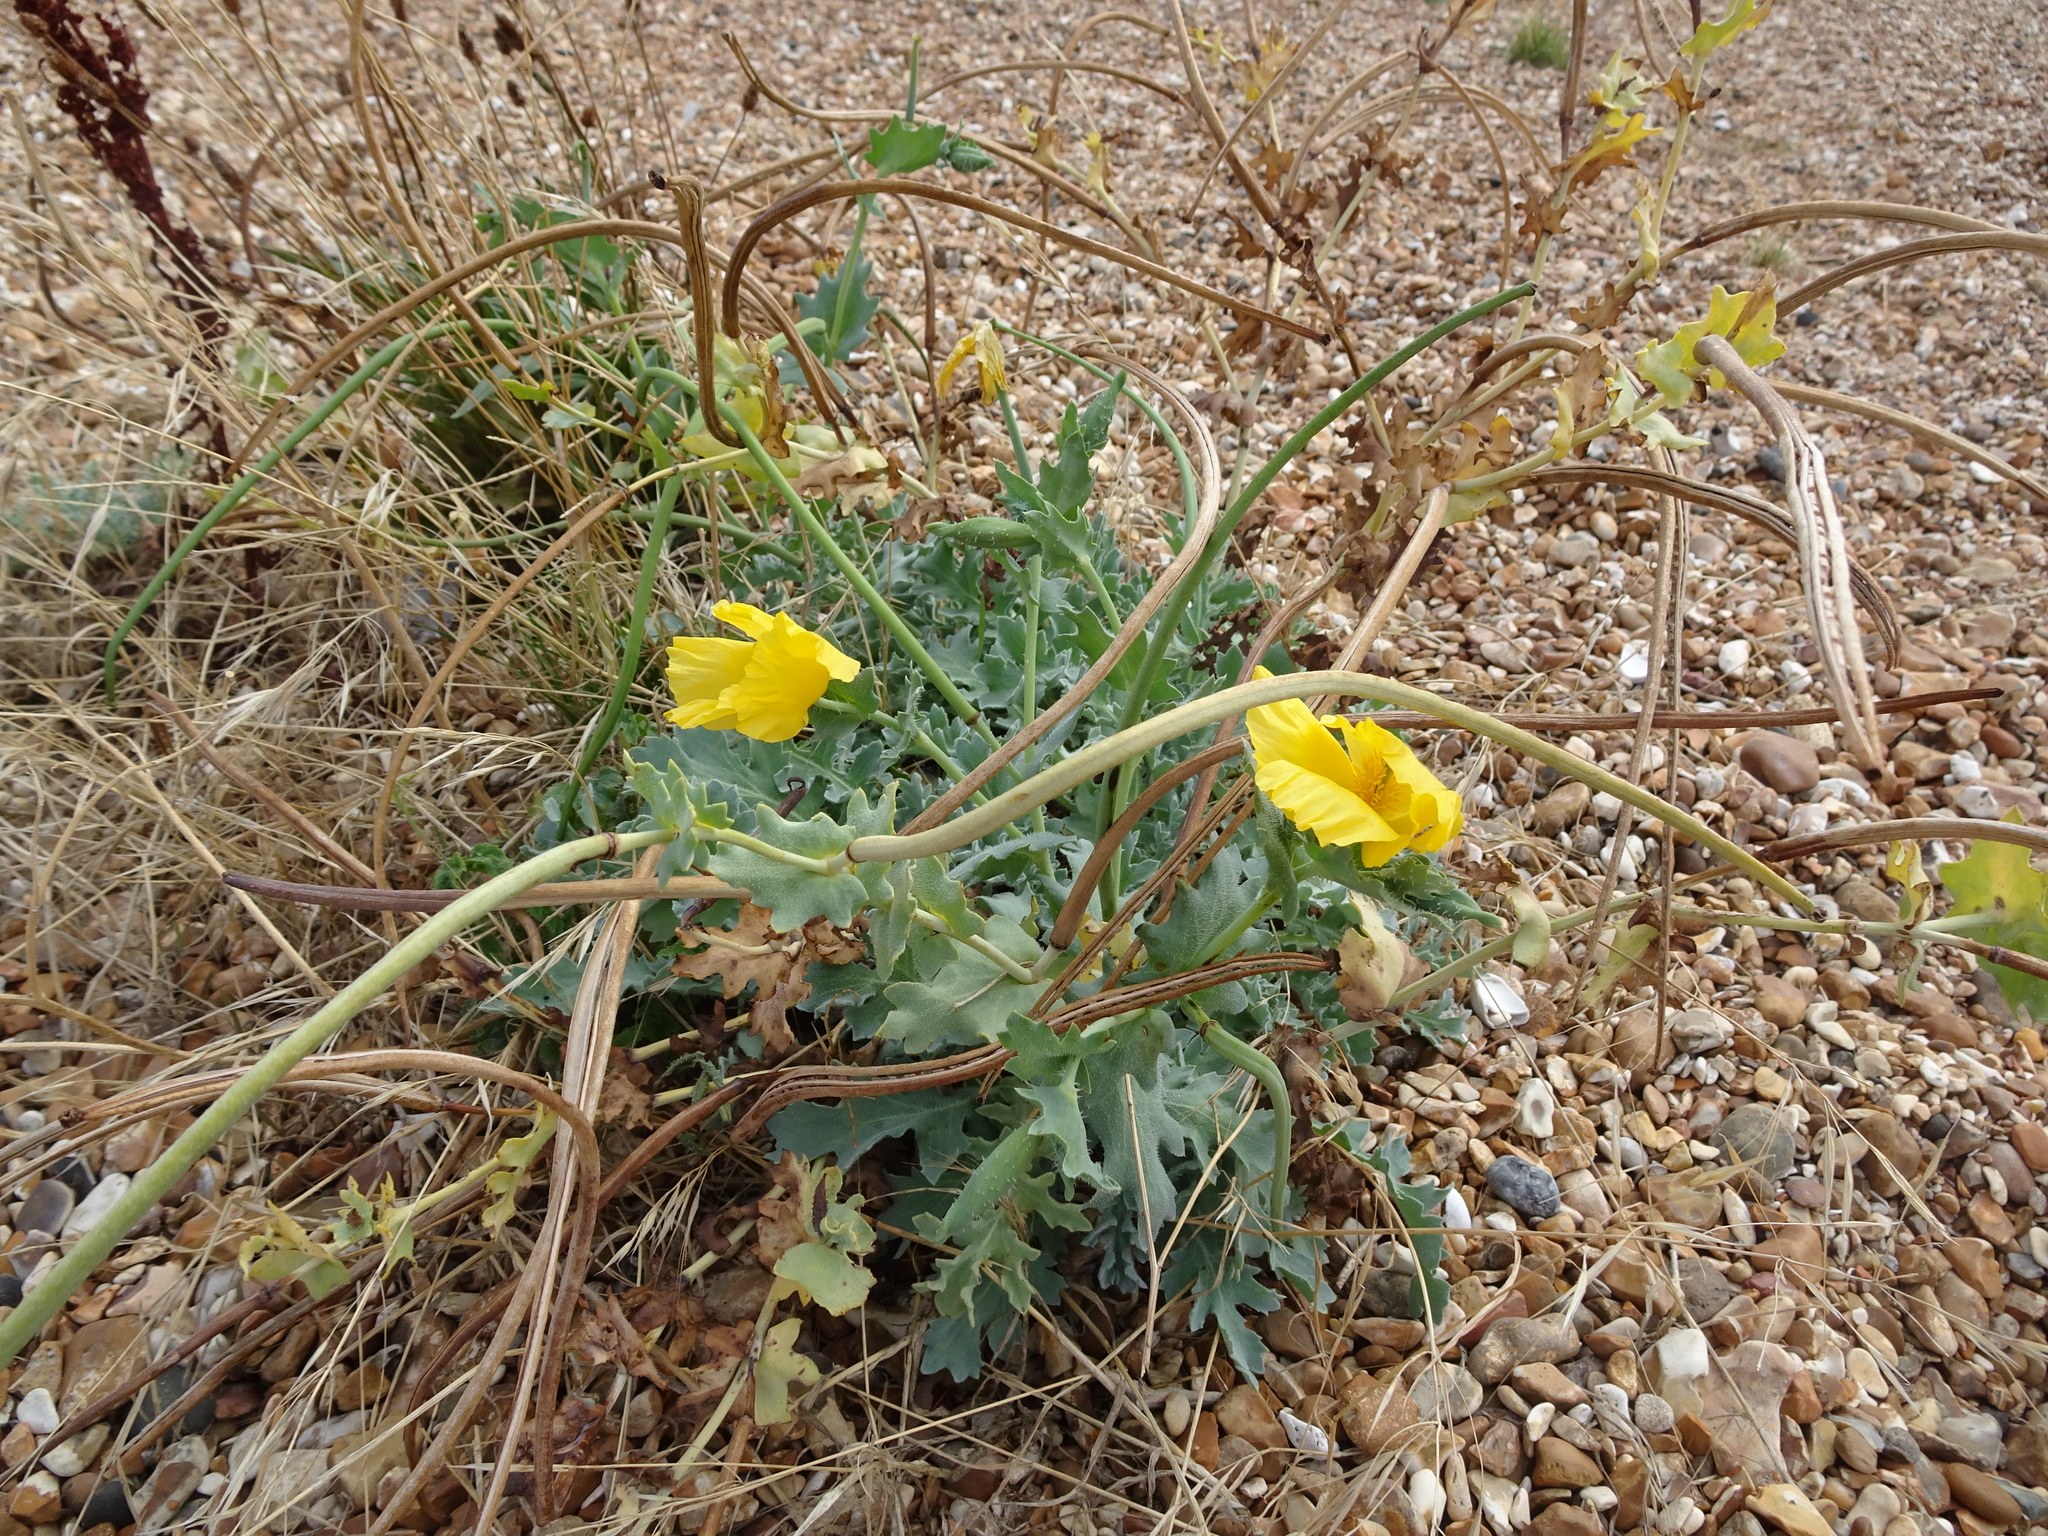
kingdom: Plantae
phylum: Tracheophyta
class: Magnoliopsida
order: Ranunculales
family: Papaveraceae
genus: Glaucium
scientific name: Glaucium flavum
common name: Yellow horned-poppy
